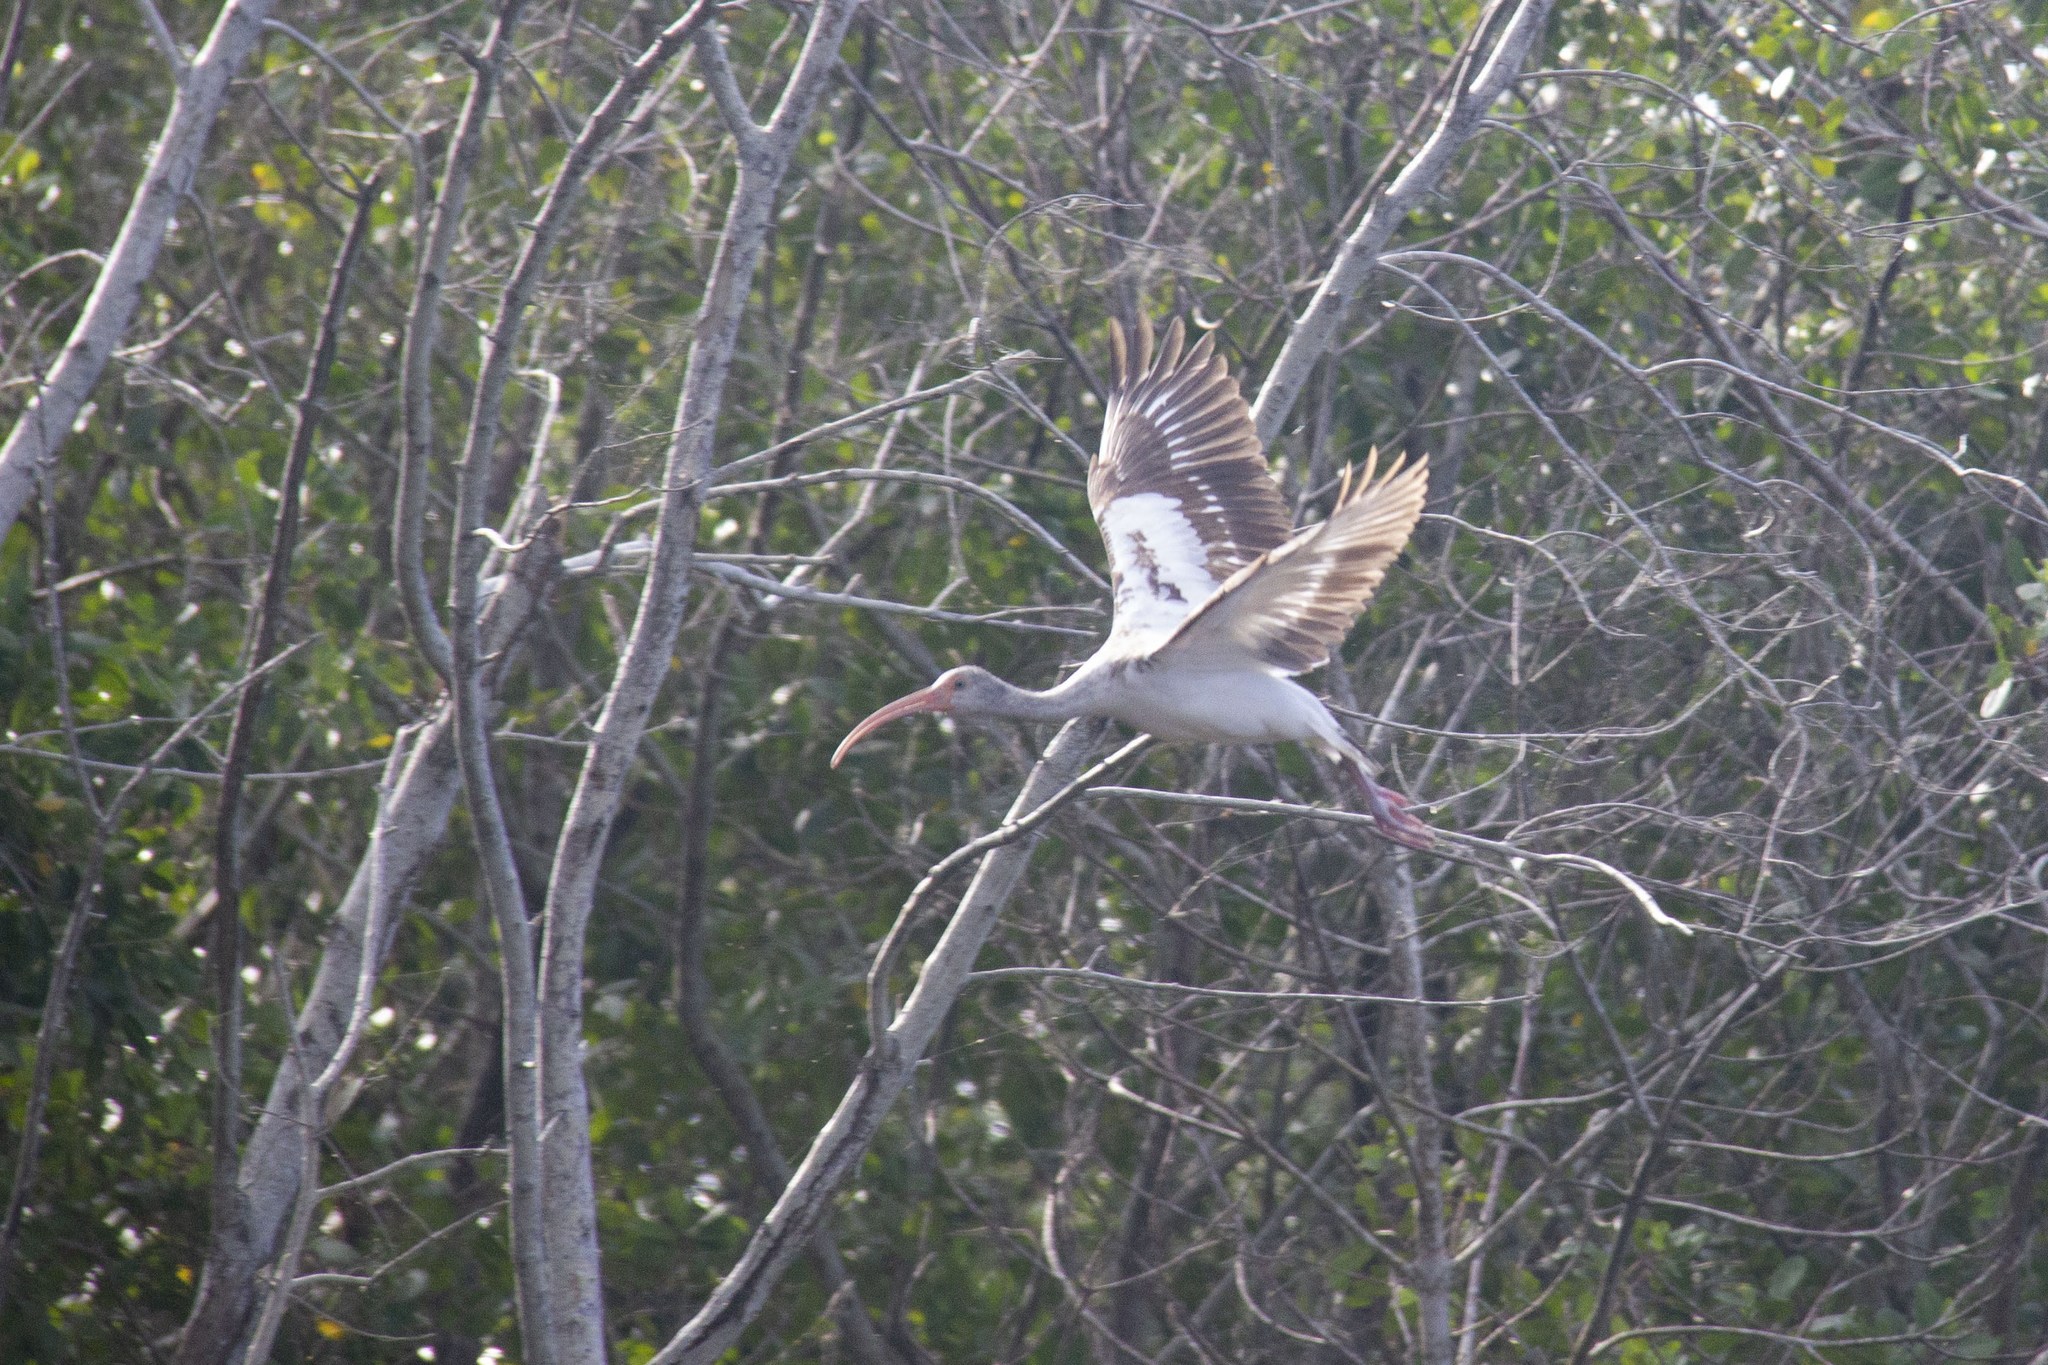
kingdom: Animalia
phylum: Chordata
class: Aves
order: Pelecaniformes
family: Threskiornithidae
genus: Eudocimus
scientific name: Eudocimus albus
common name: White ibis
